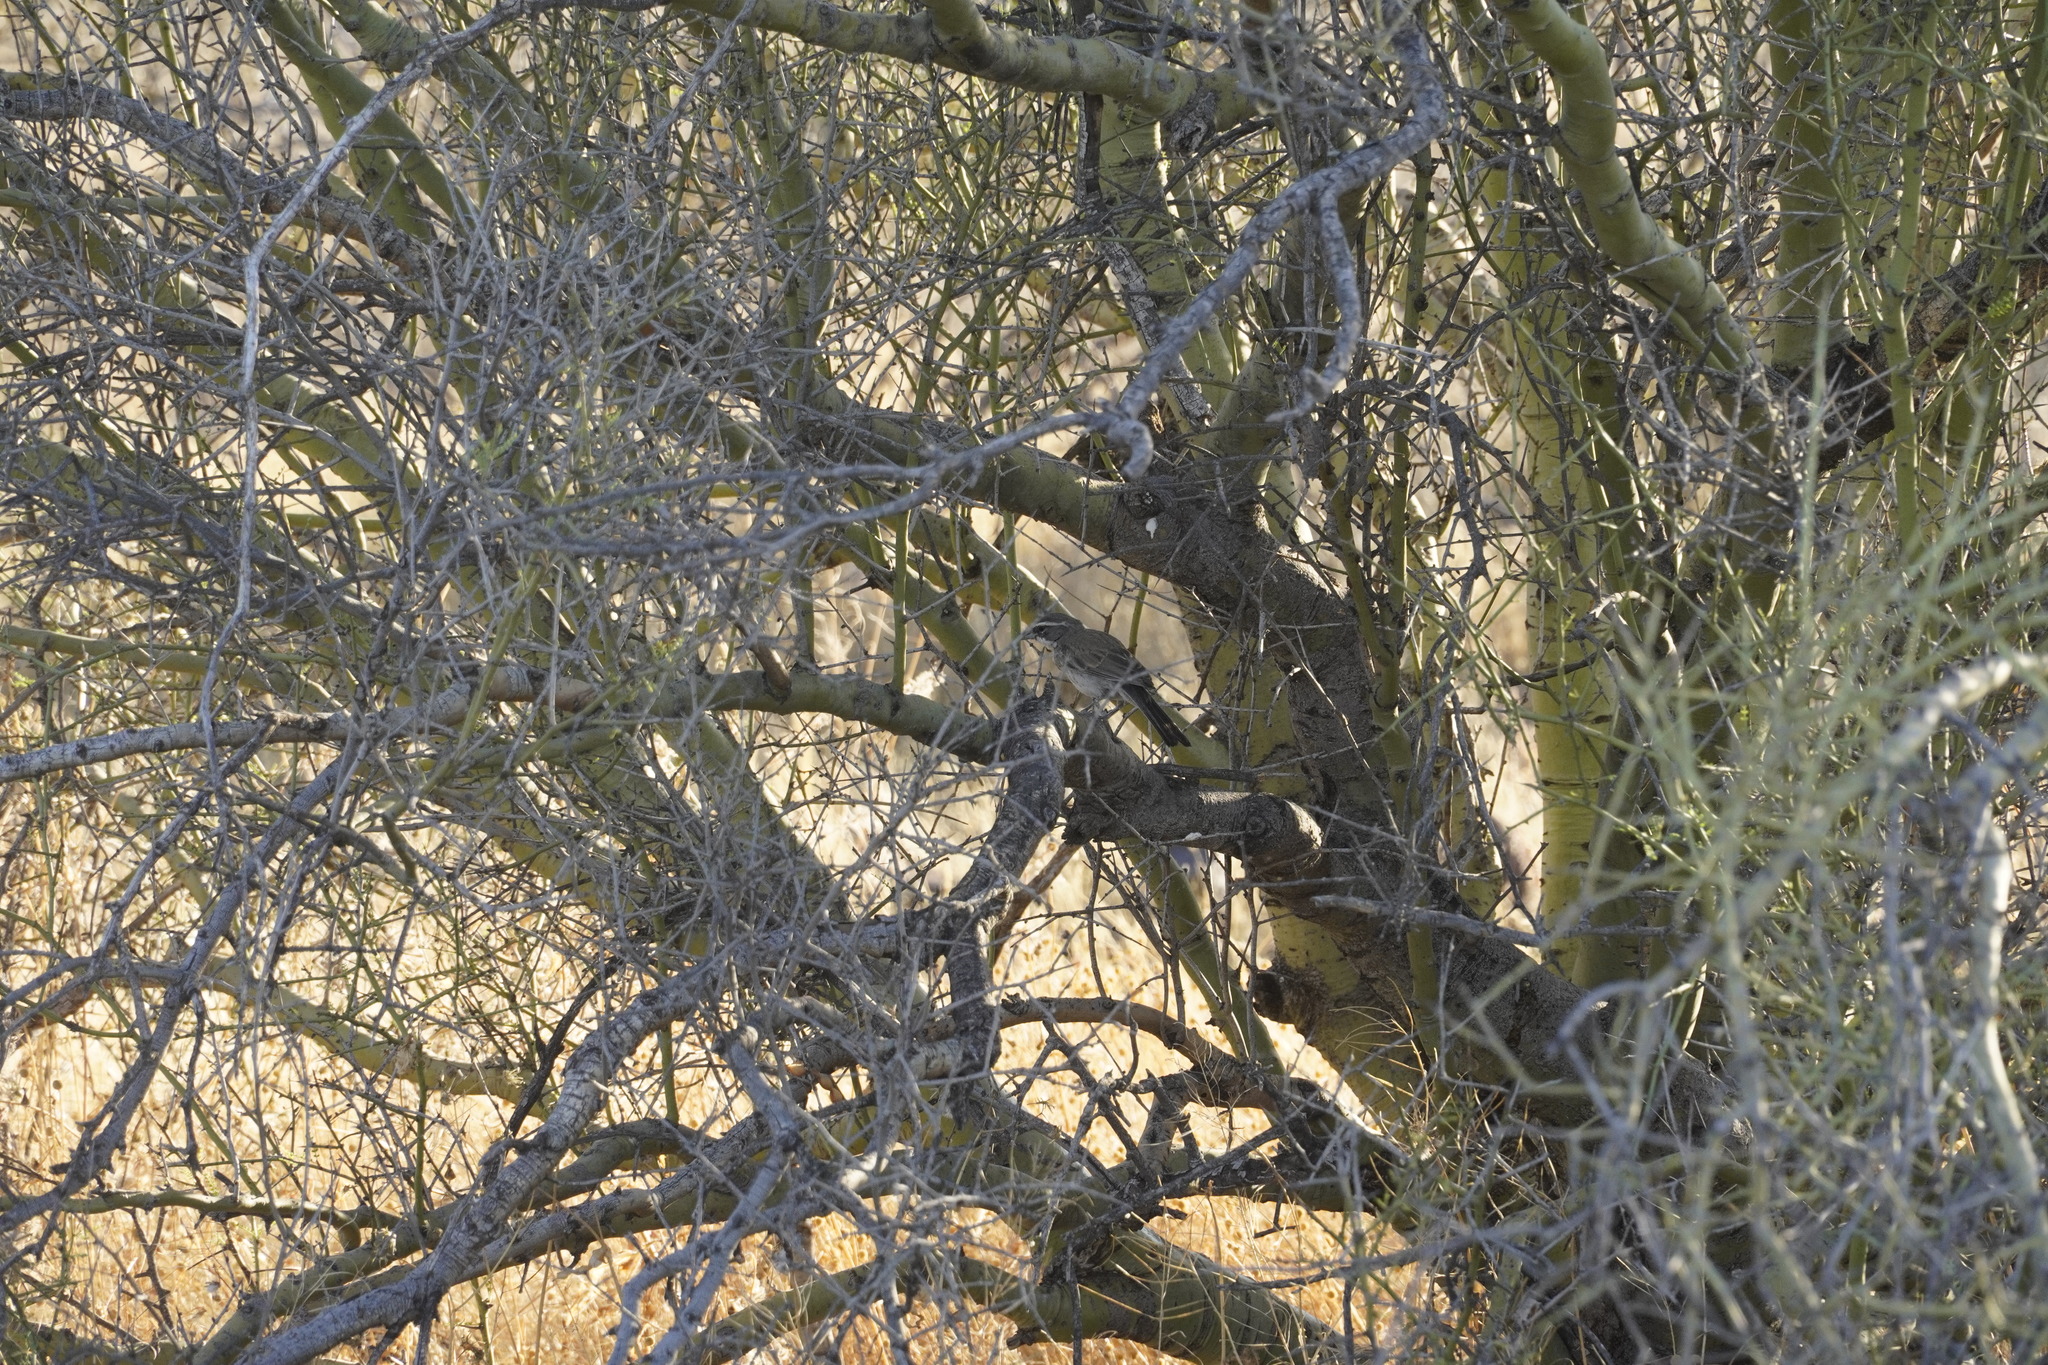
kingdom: Animalia
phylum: Chordata
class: Aves
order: Passeriformes
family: Passerellidae
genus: Amphispiza
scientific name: Amphispiza bilineata
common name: Black-throated sparrow
